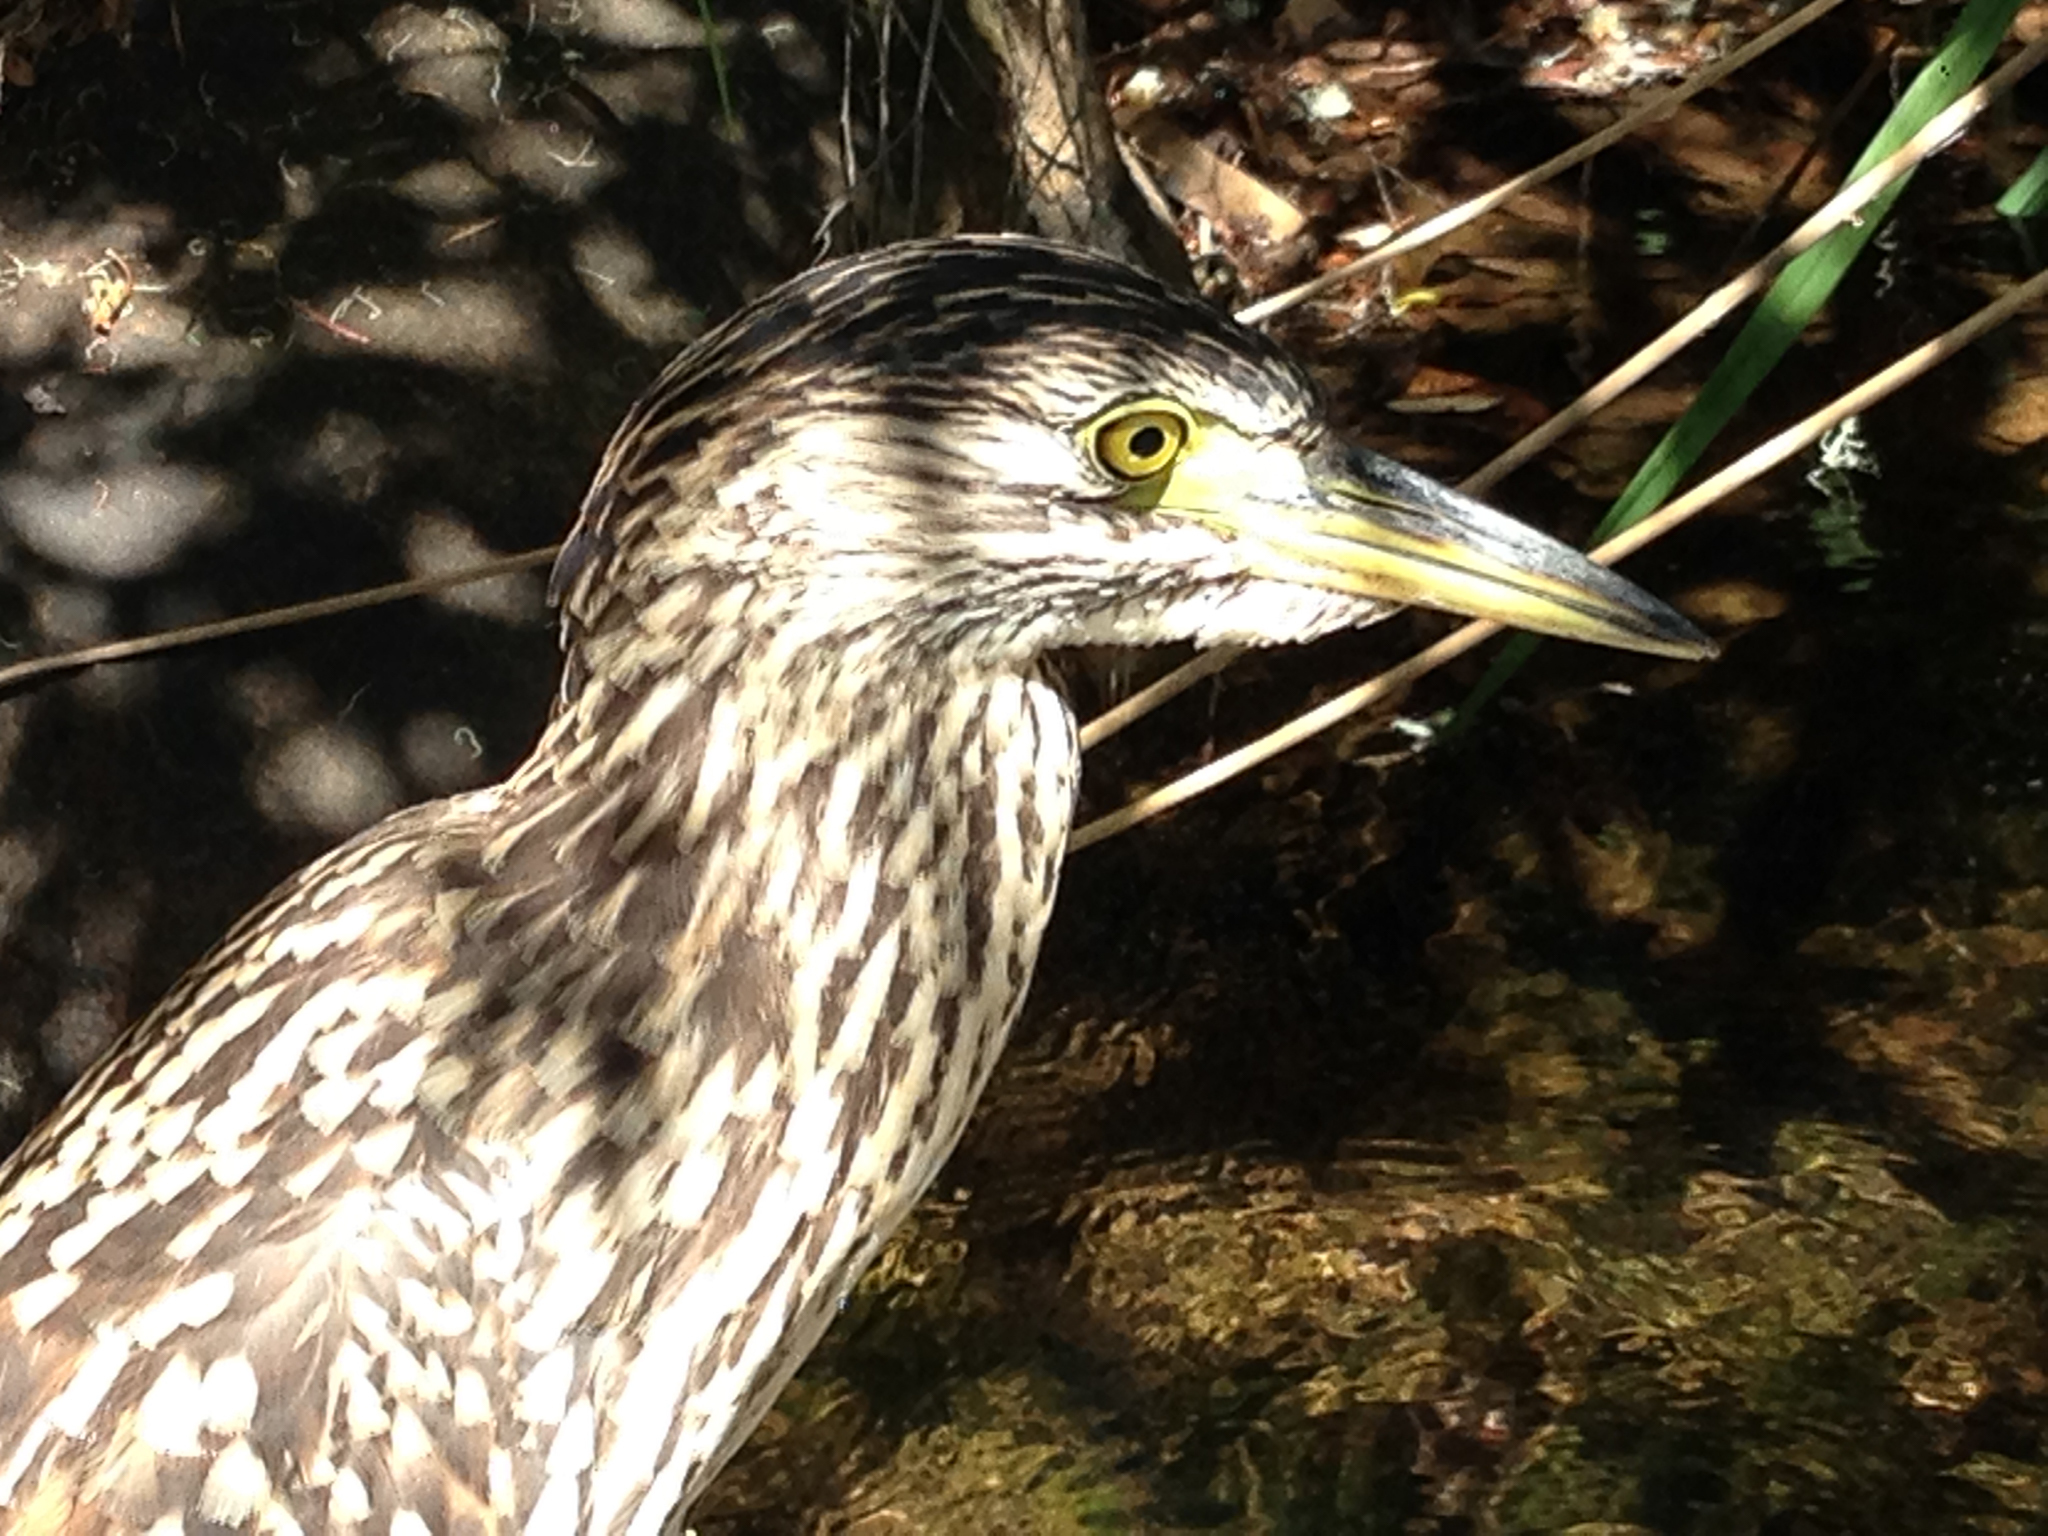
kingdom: Animalia
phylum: Chordata
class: Aves
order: Pelecaniformes
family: Ardeidae
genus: Nycticorax
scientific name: Nycticorax caledonicus
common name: Rufous night-heron
